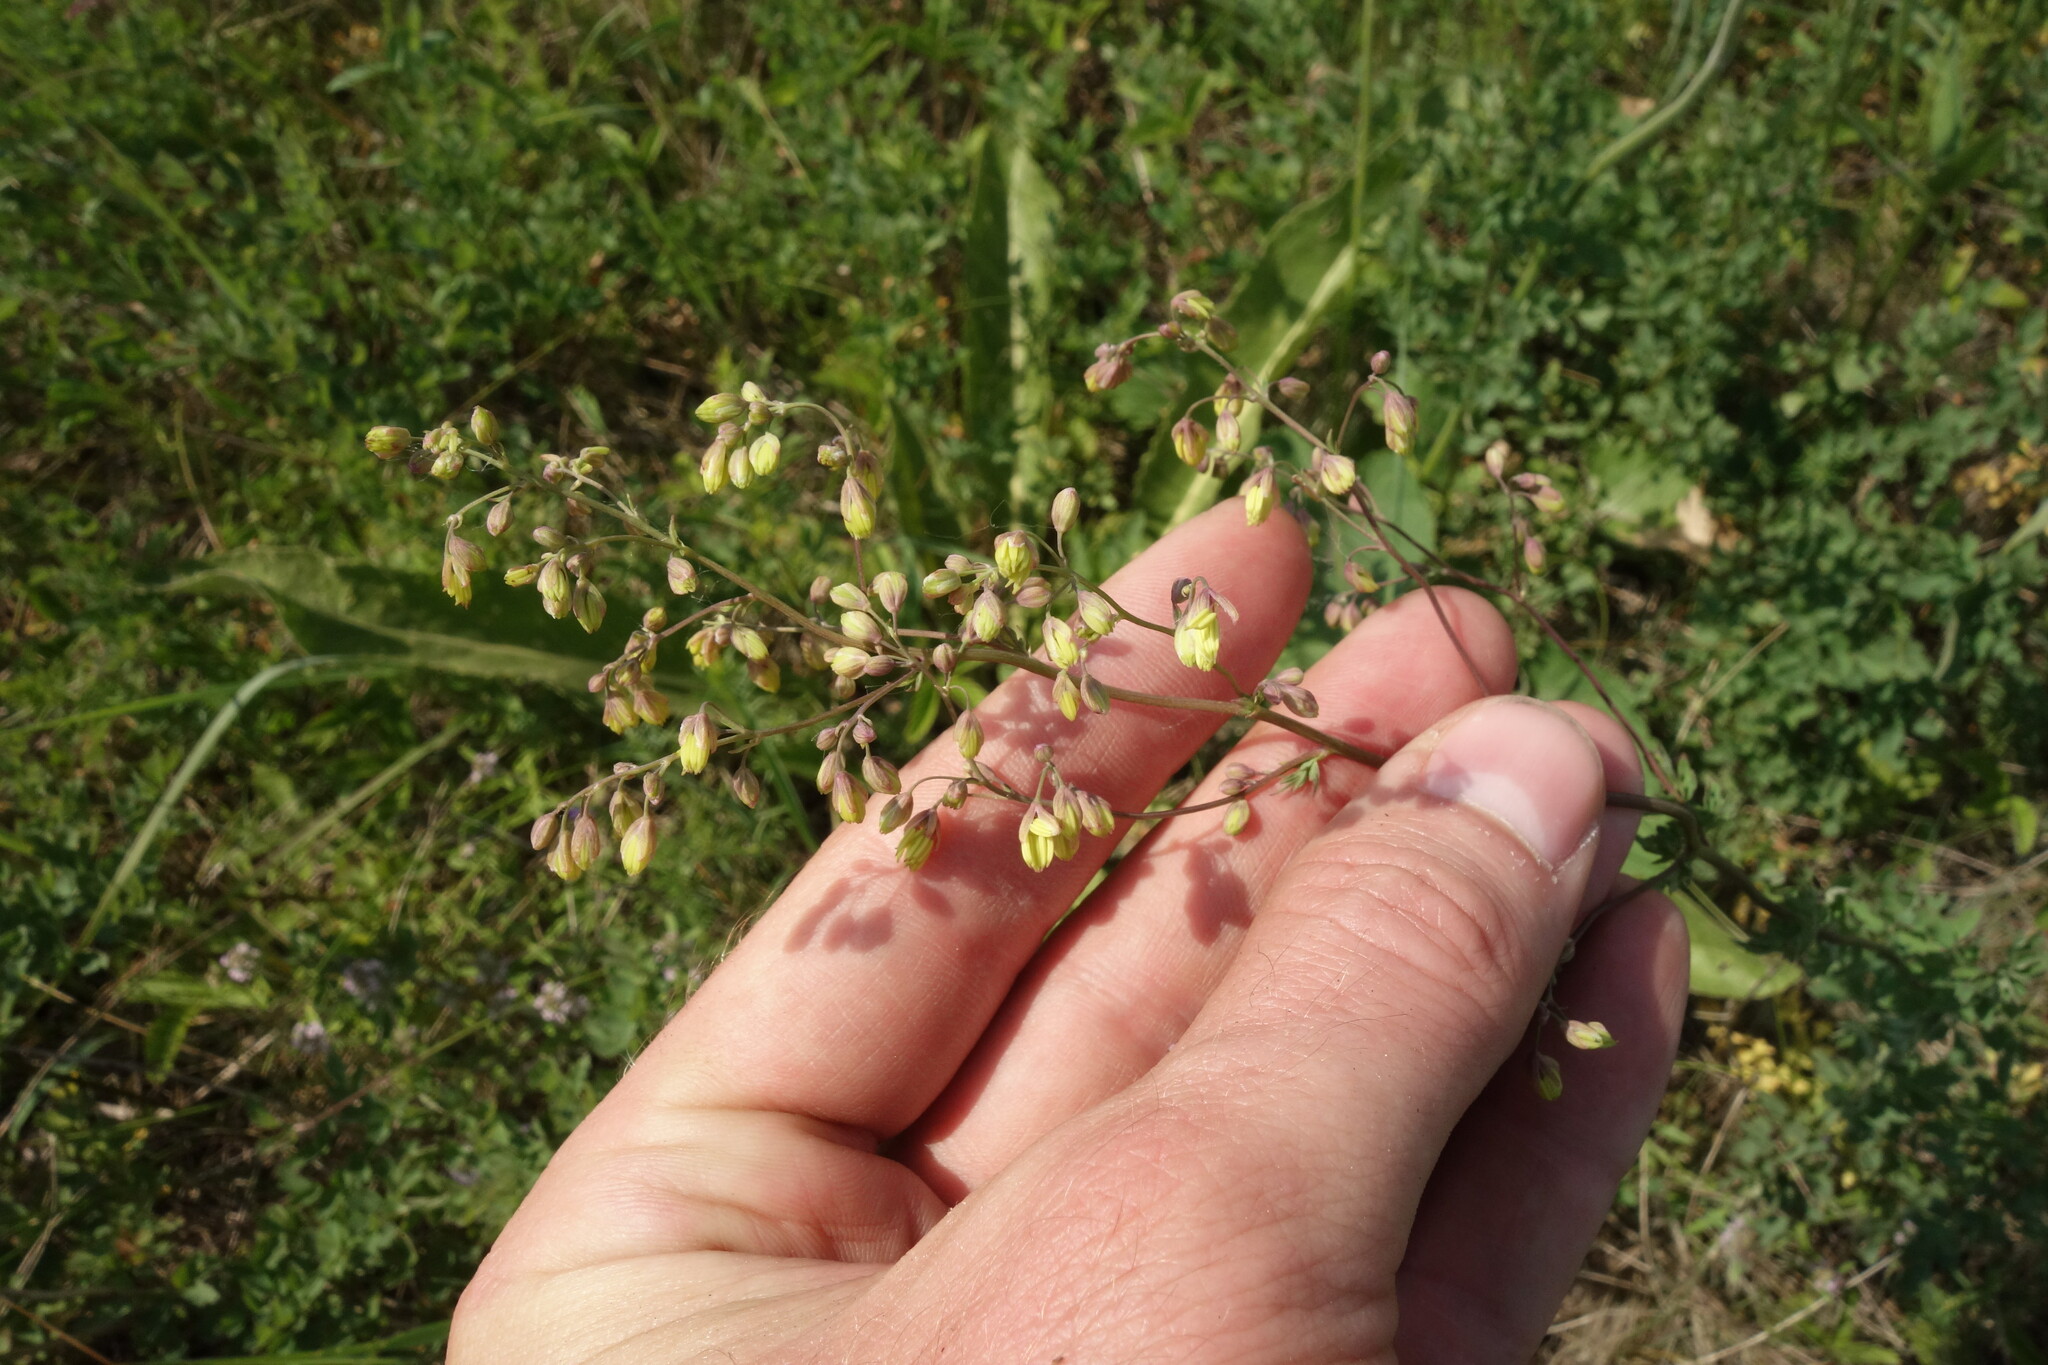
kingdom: Plantae
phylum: Tracheophyta
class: Magnoliopsida
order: Ranunculales
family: Ranunculaceae
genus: Thalictrum
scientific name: Thalictrum minus
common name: Lesser meadow-rue
